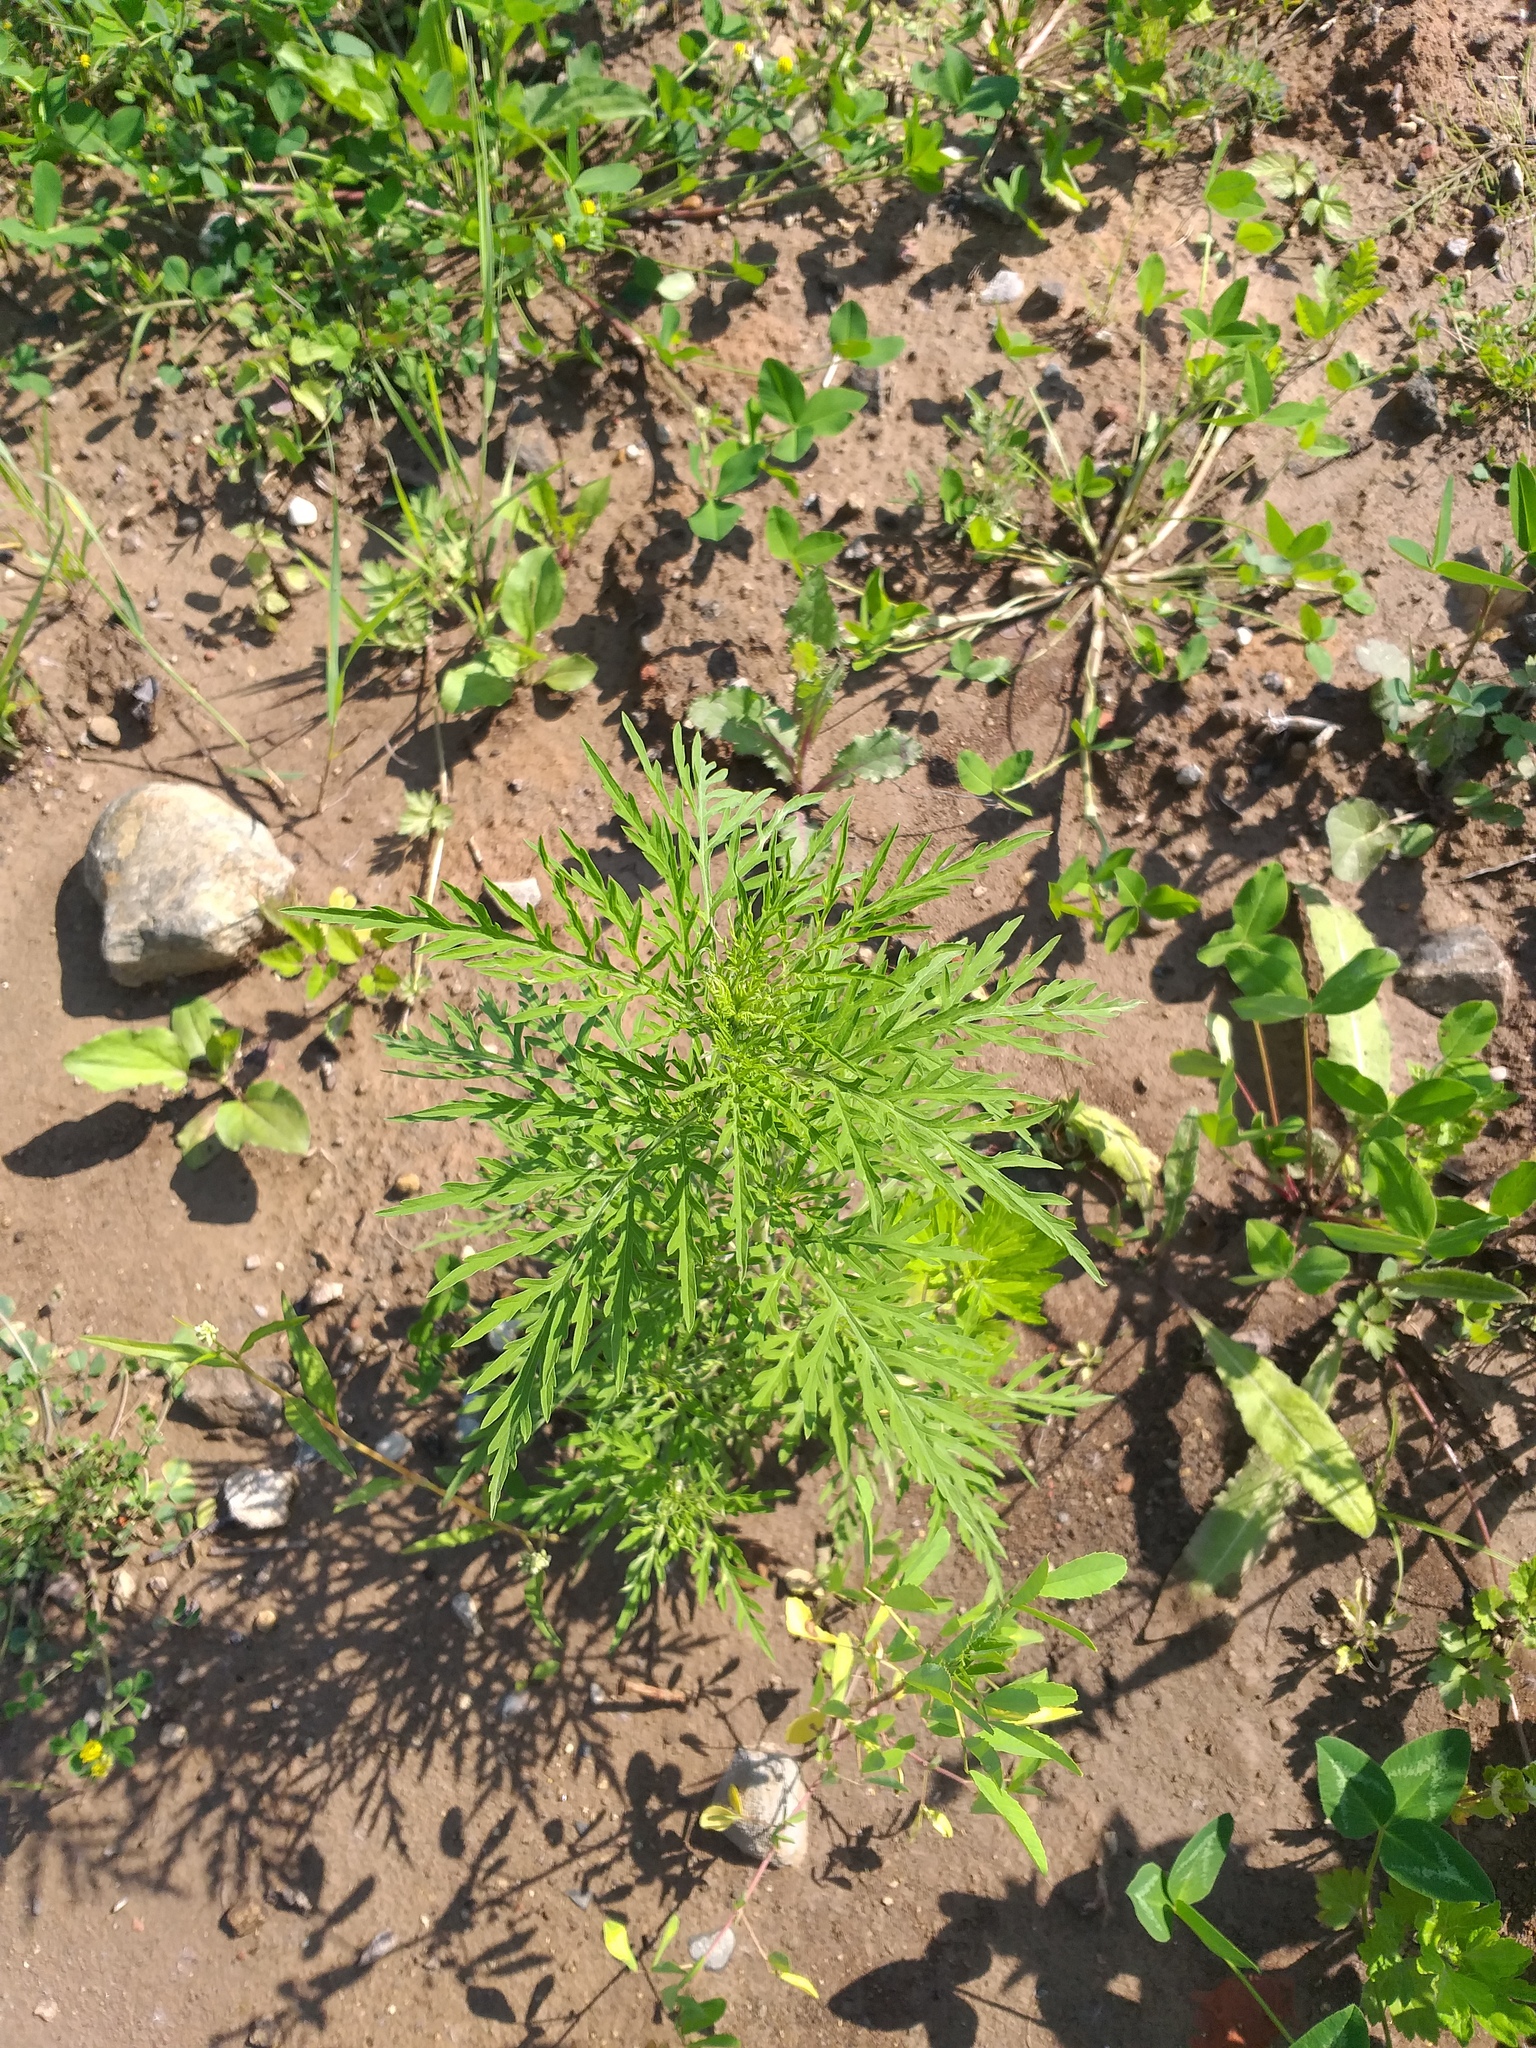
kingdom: Plantae
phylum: Tracheophyta
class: Magnoliopsida
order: Asterales
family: Asteraceae
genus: Ambrosia
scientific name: Ambrosia artemisiifolia
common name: Annual ragweed
